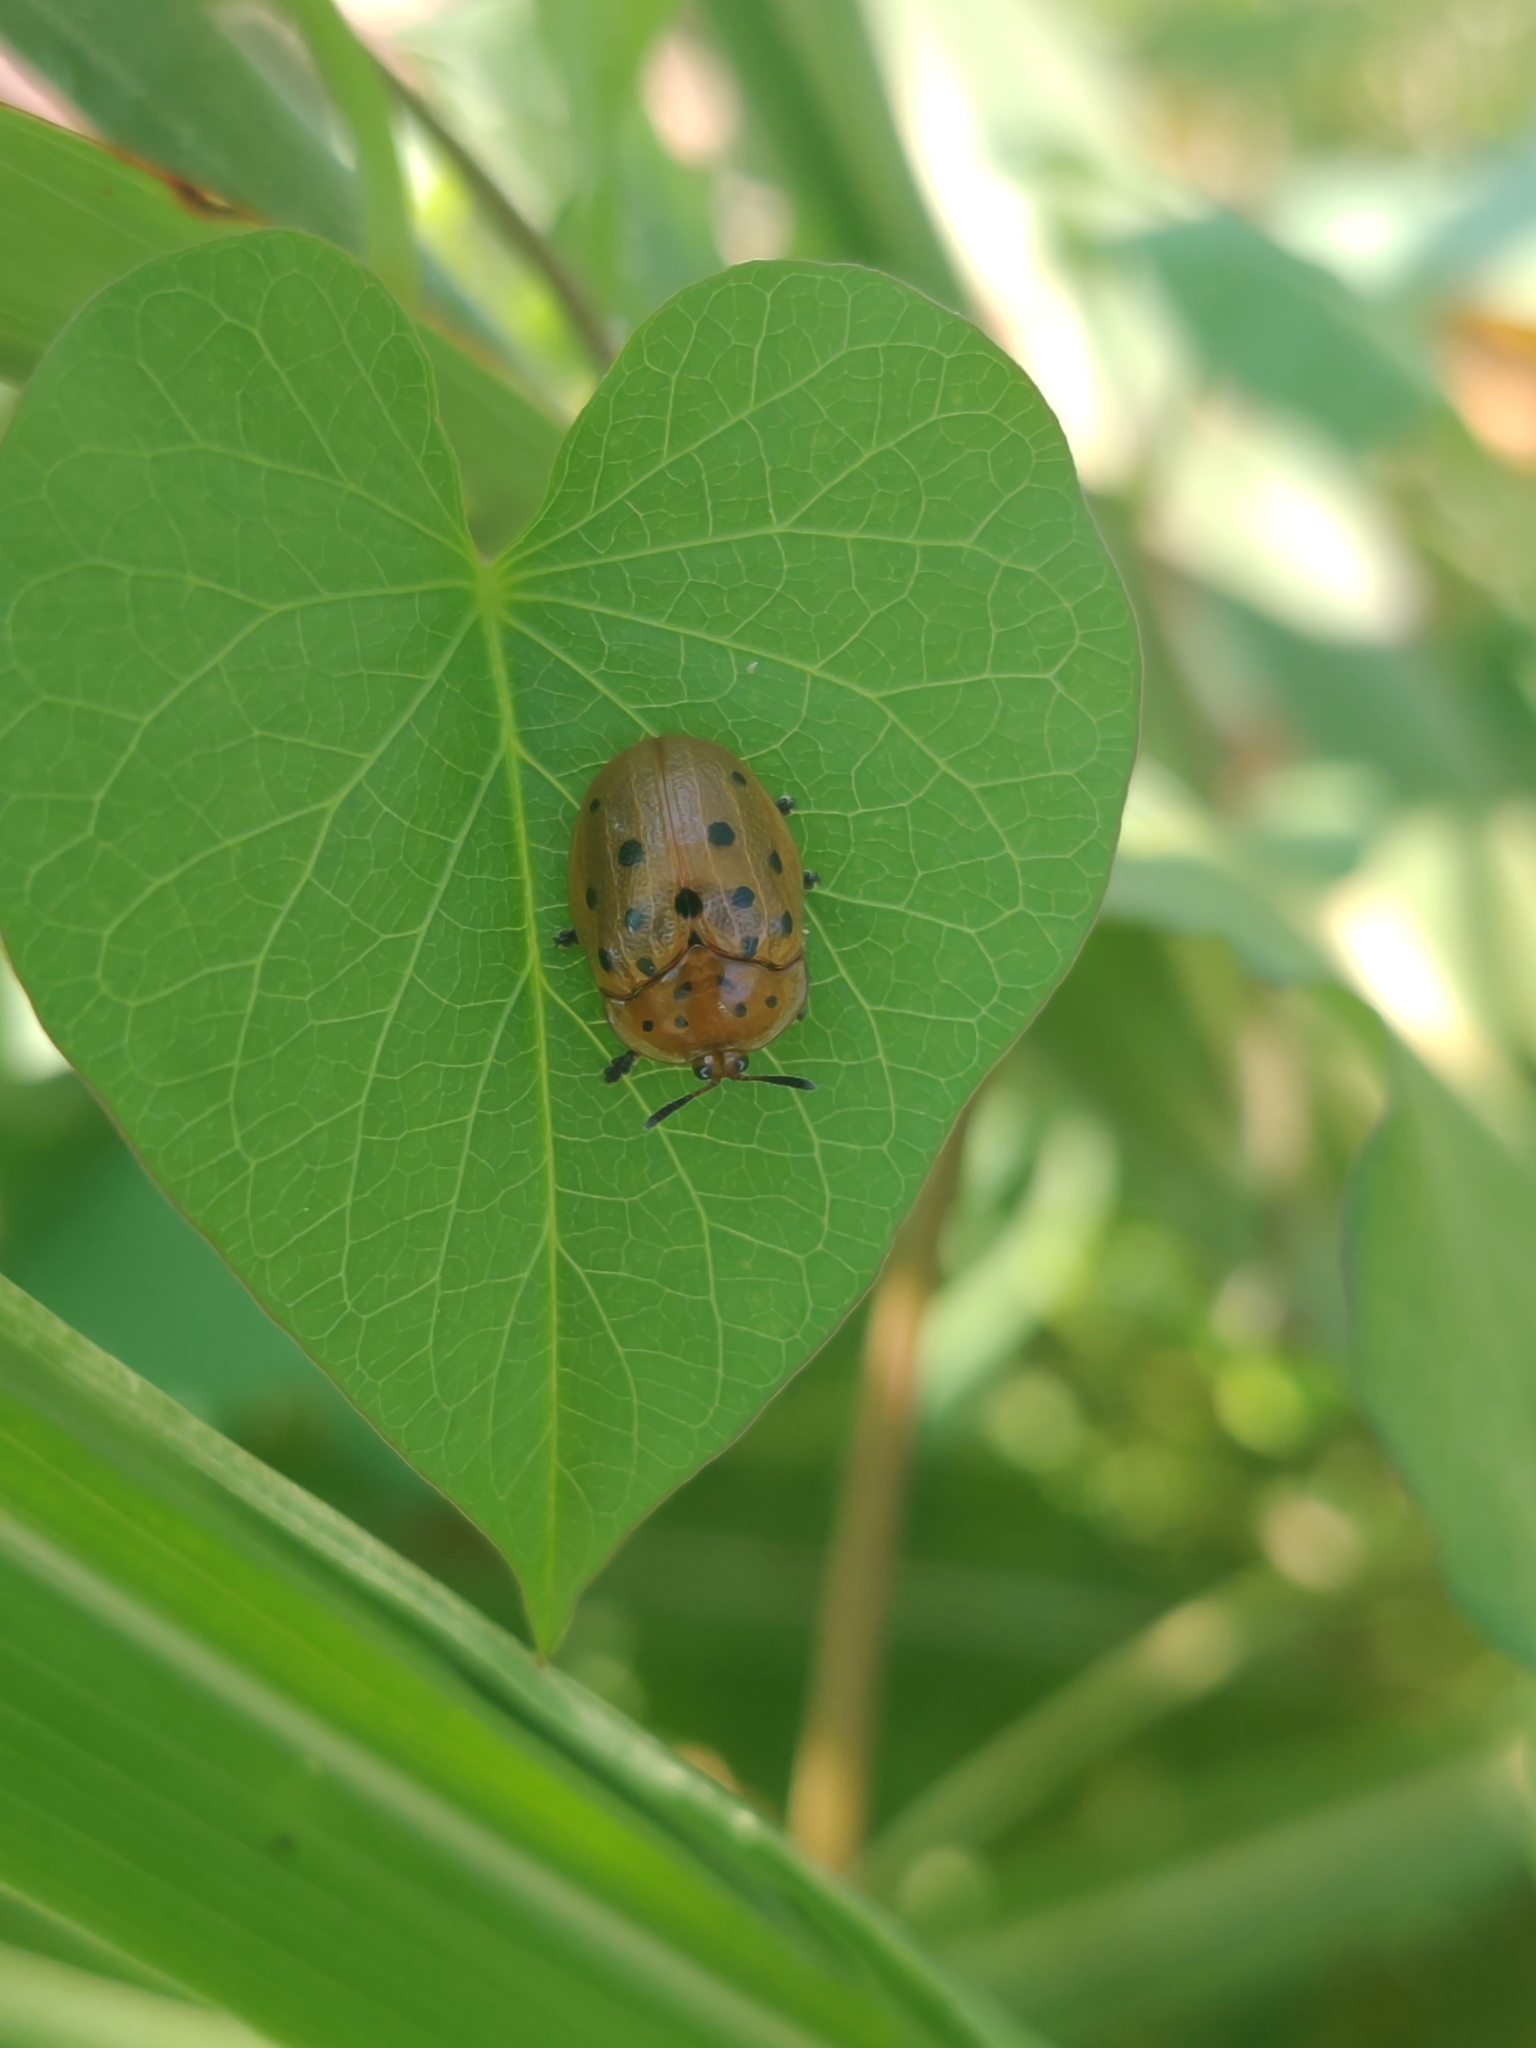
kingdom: Animalia
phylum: Arthropoda
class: Insecta
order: Coleoptera
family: Chrysomelidae
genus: Chelymorpha
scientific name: Chelymorpha cassidea
